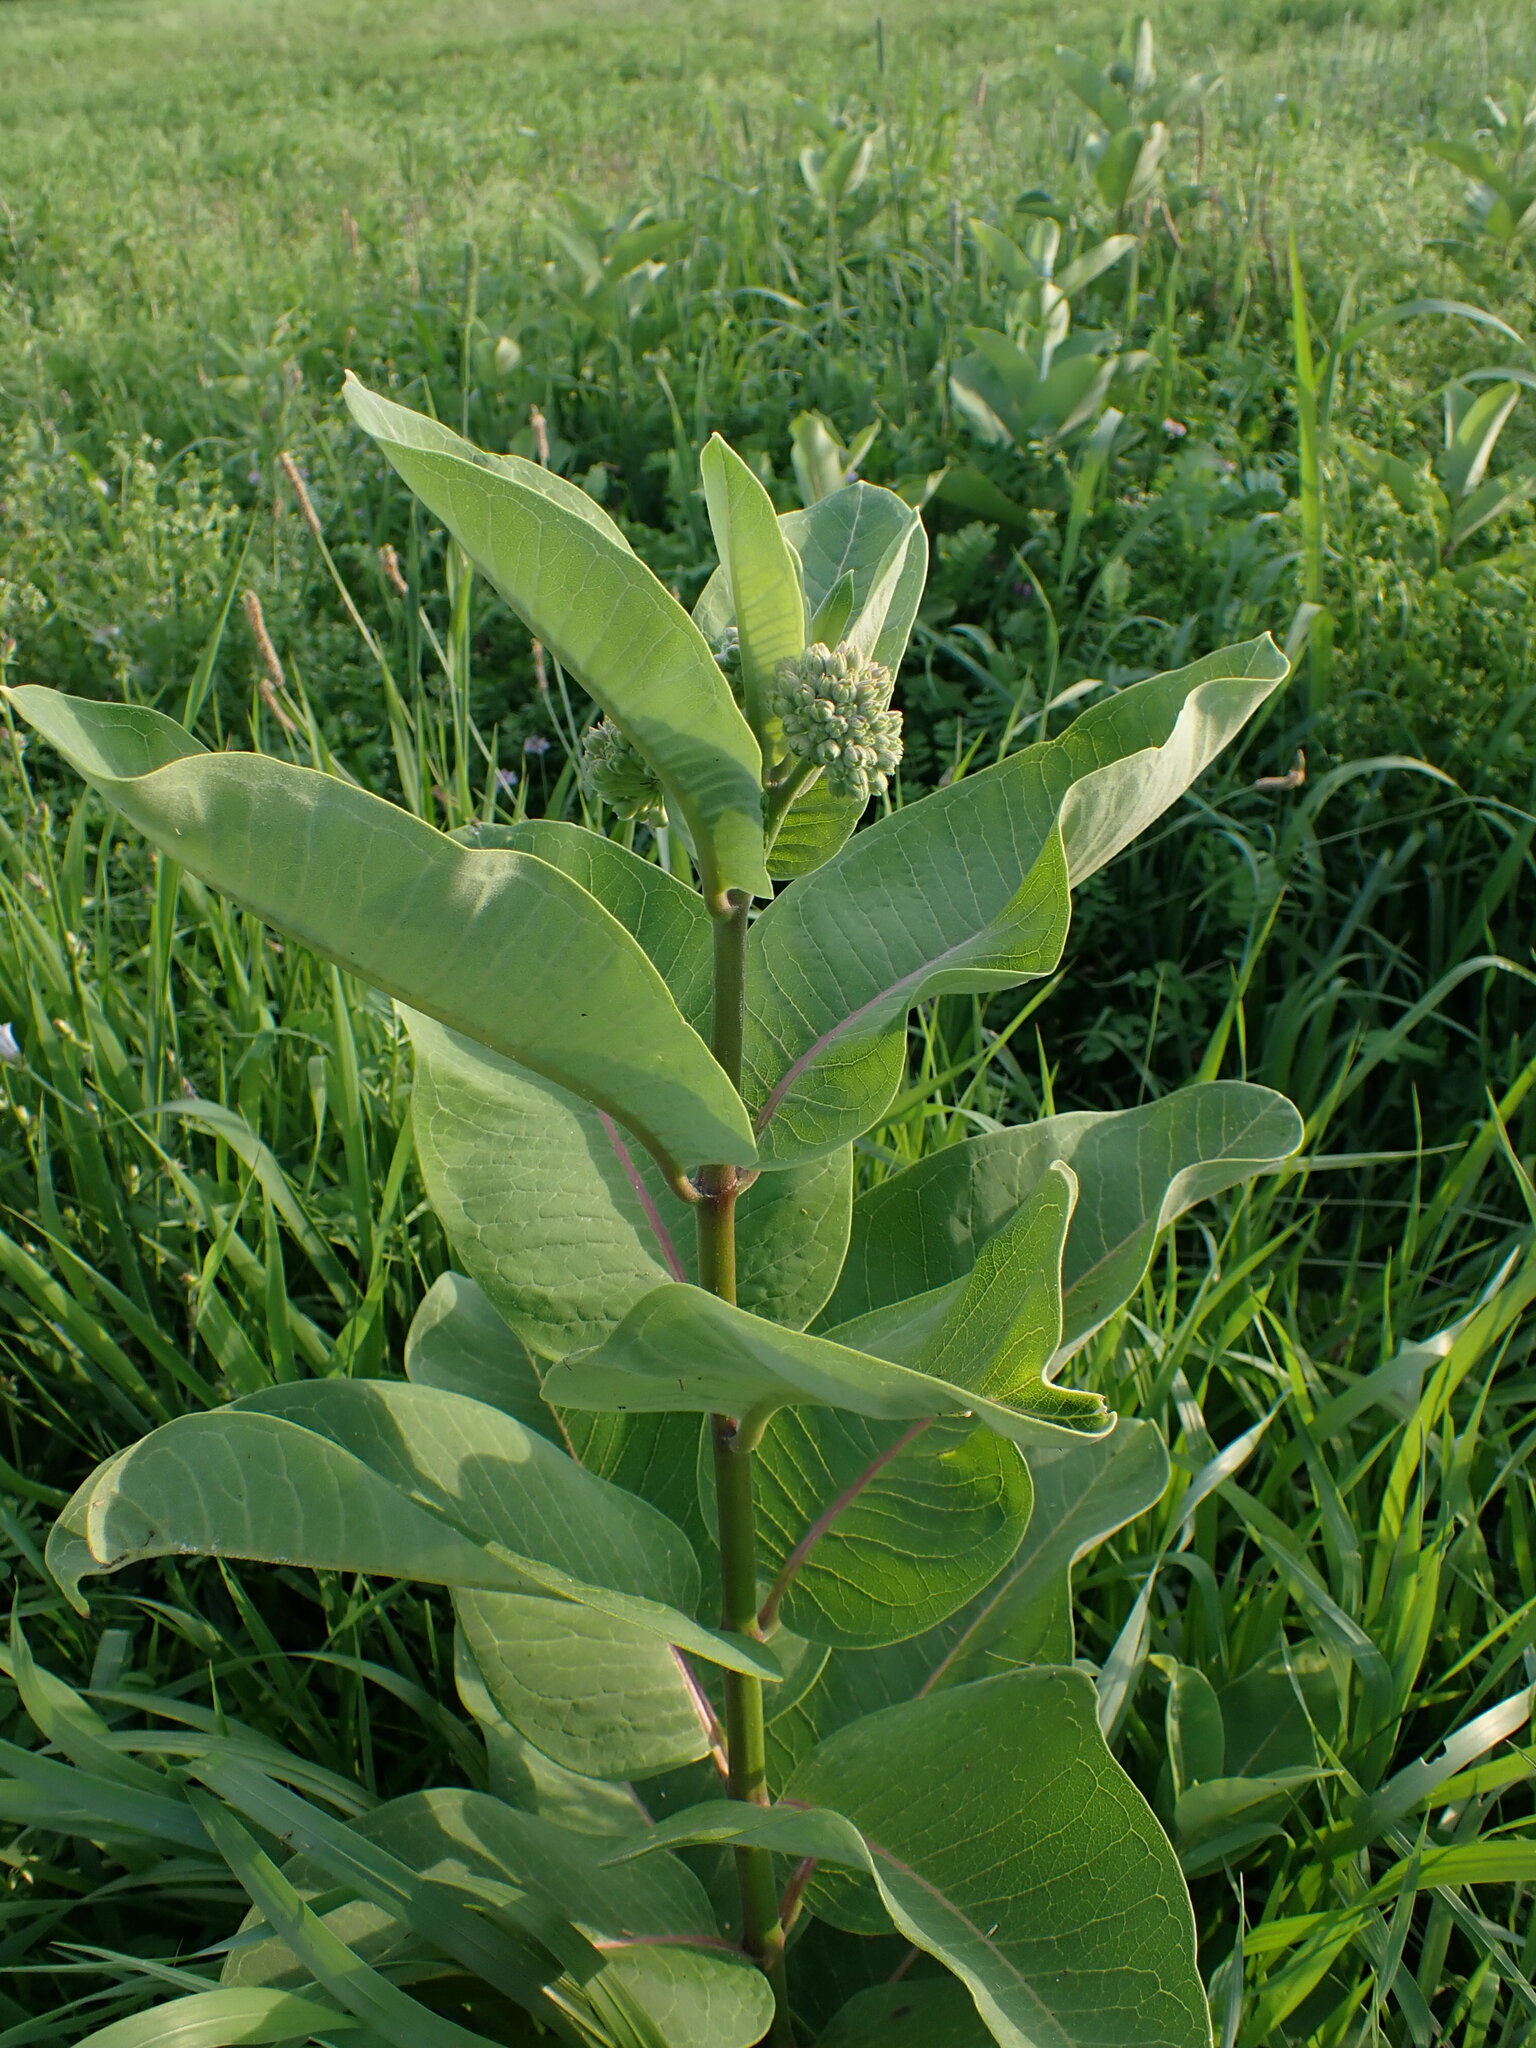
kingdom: Plantae
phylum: Tracheophyta
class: Magnoliopsida
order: Gentianales
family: Apocynaceae
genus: Asclepias
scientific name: Asclepias syriaca
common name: Common milkweed
